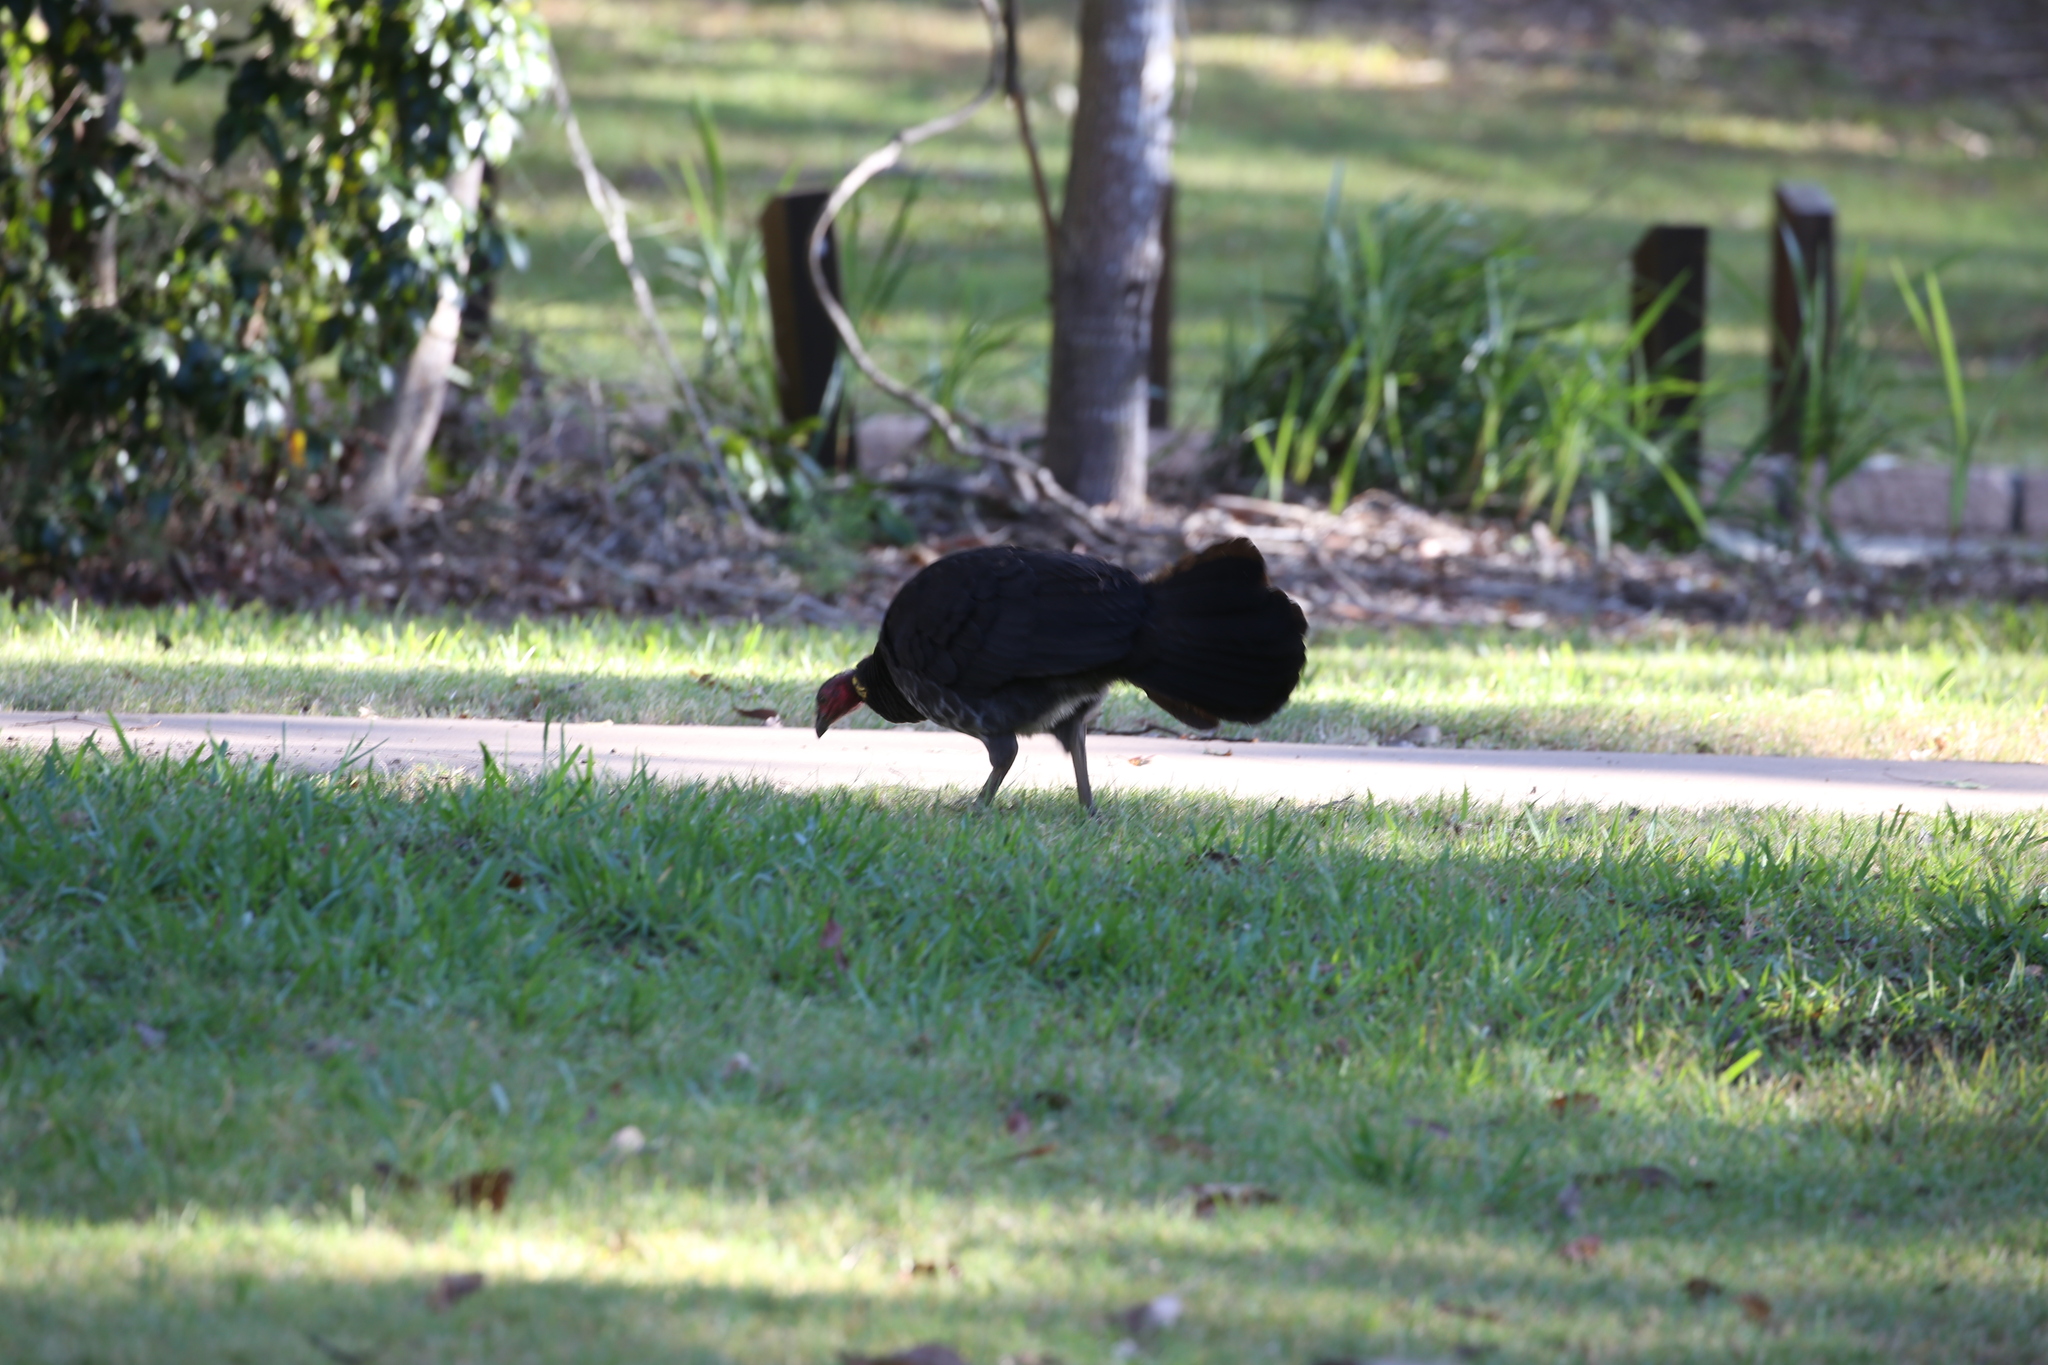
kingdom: Animalia
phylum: Chordata
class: Aves
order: Galliformes
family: Megapodiidae
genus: Alectura
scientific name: Alectura lathami
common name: Australian brushturkey
